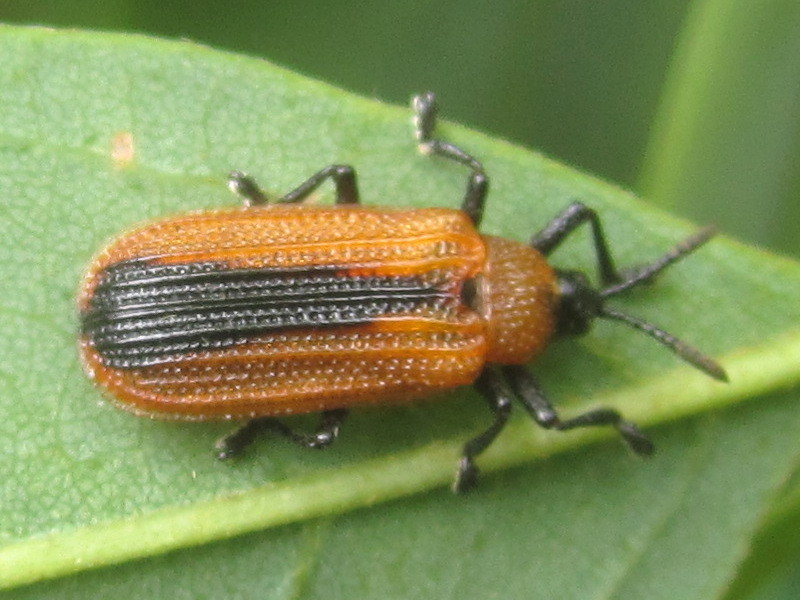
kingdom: Animalia
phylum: Arthropoda
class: Insecta
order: Coleoptera
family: Chrysomelidae
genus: Odontota
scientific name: Odontota dorsalis
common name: Locust leaf-miner beetle
